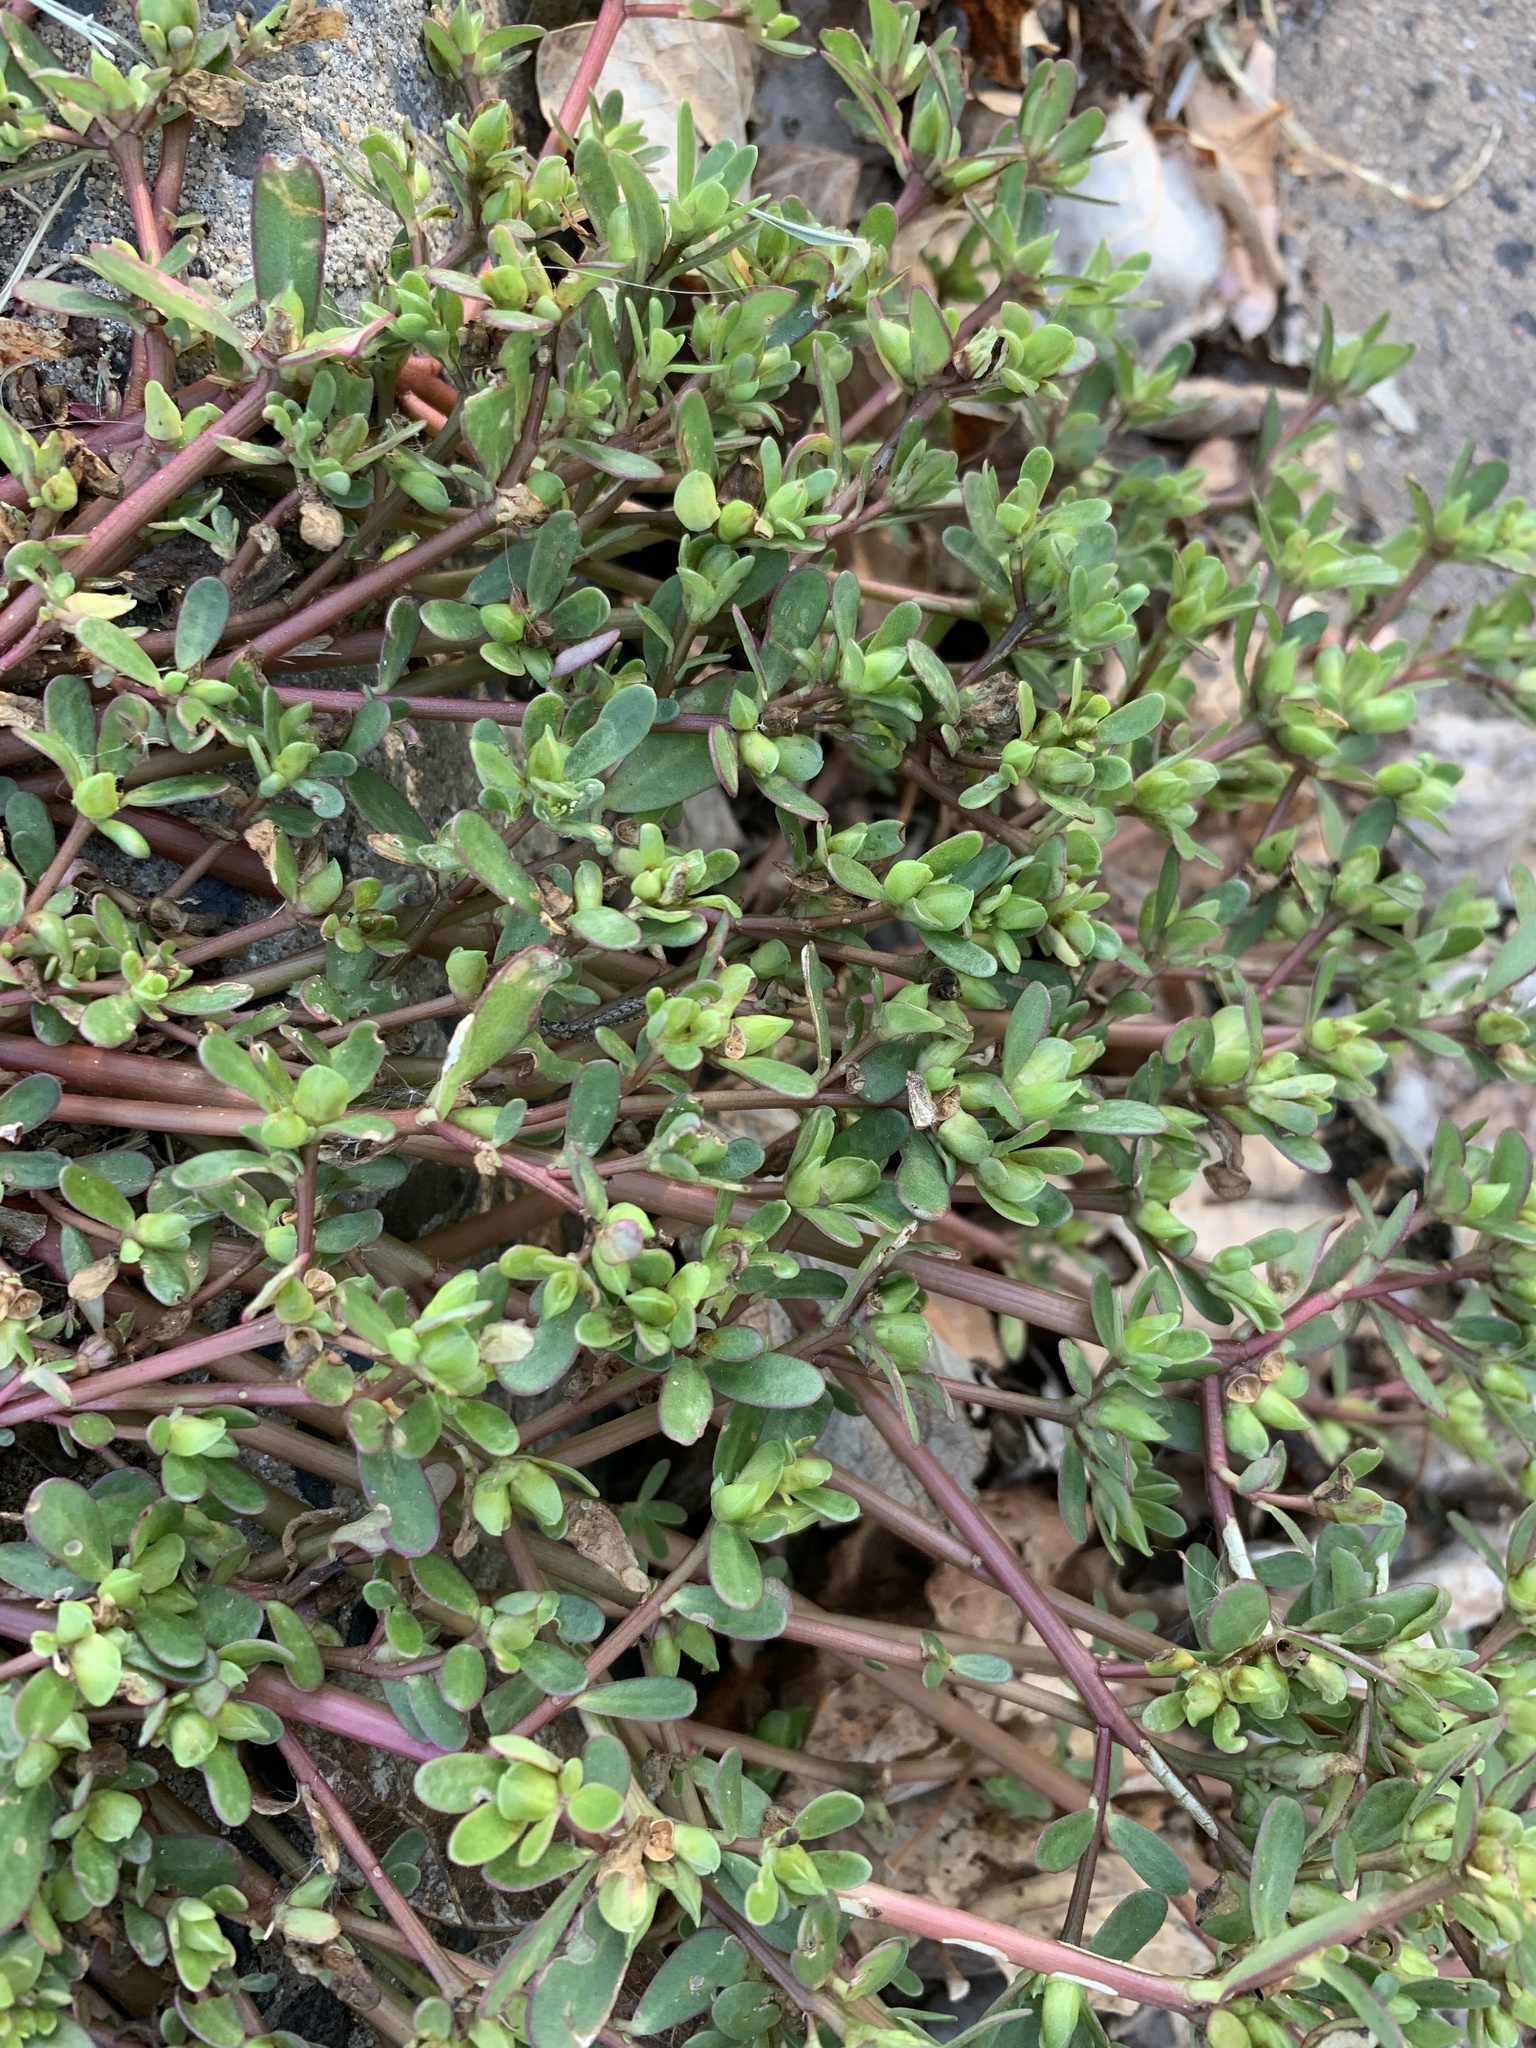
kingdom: Plantae
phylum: Tracheophyta
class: Magnoliopsida
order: Caryophyllales
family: Portulacaceae
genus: Portulaca
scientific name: Portulaca oleracea
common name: Common purslane
